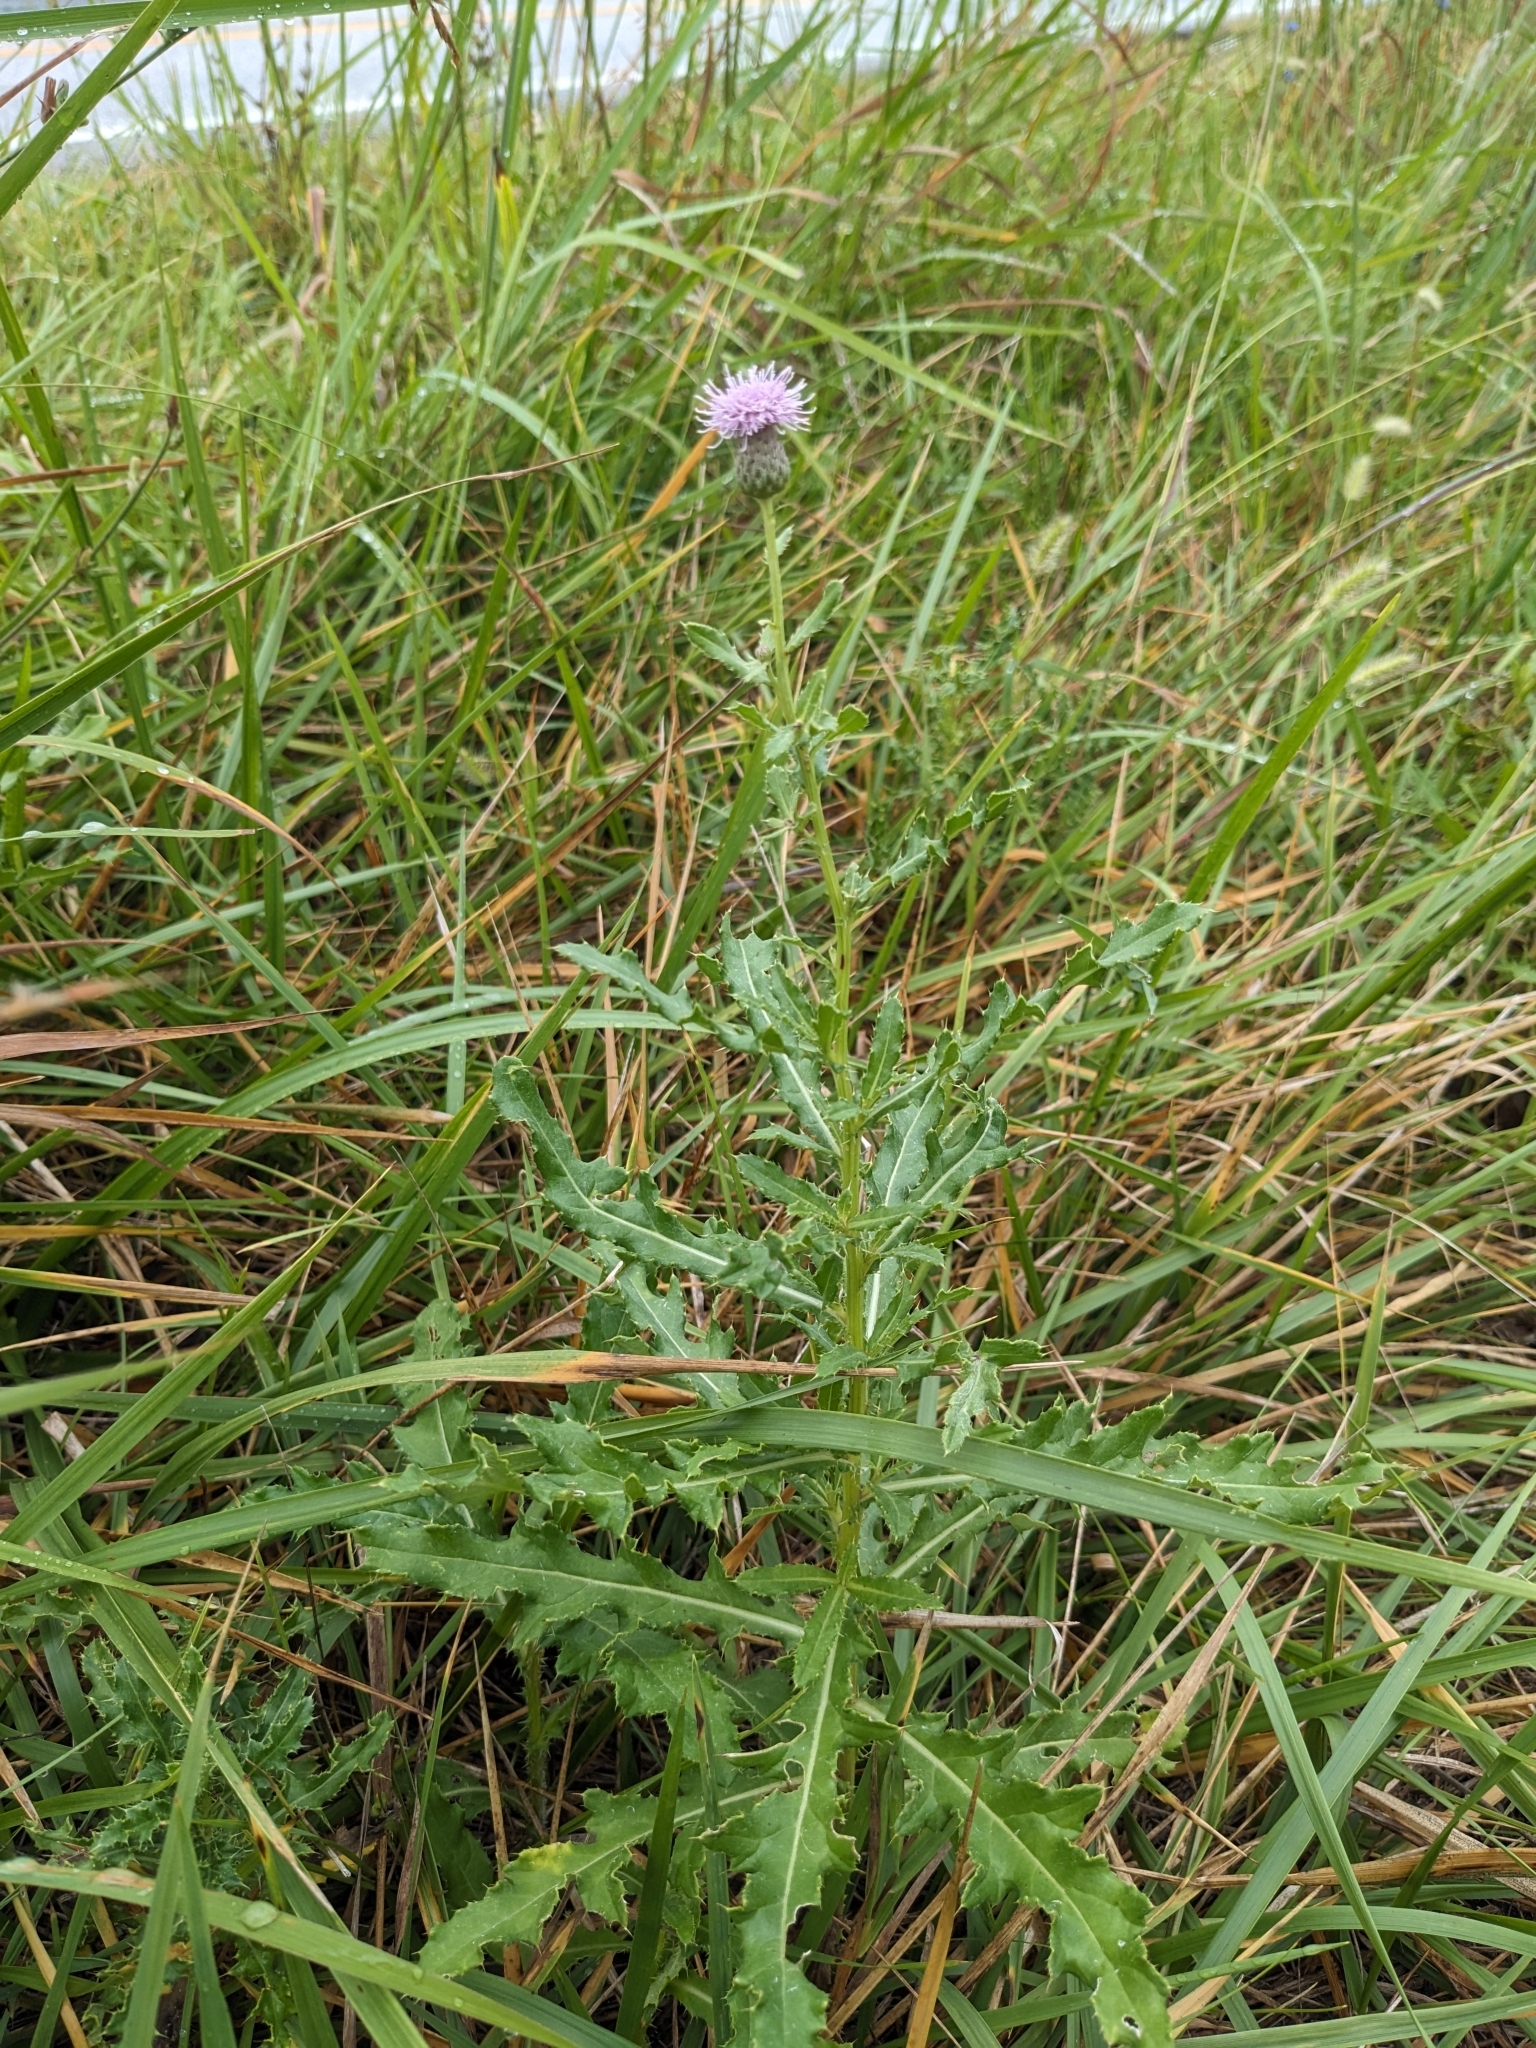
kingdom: Plantae
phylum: Tracheophyta
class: Magnoliopsida
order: Asterales
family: Asteraceae
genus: Cirsium
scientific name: Cirsium arvense
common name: Creeping thistle
